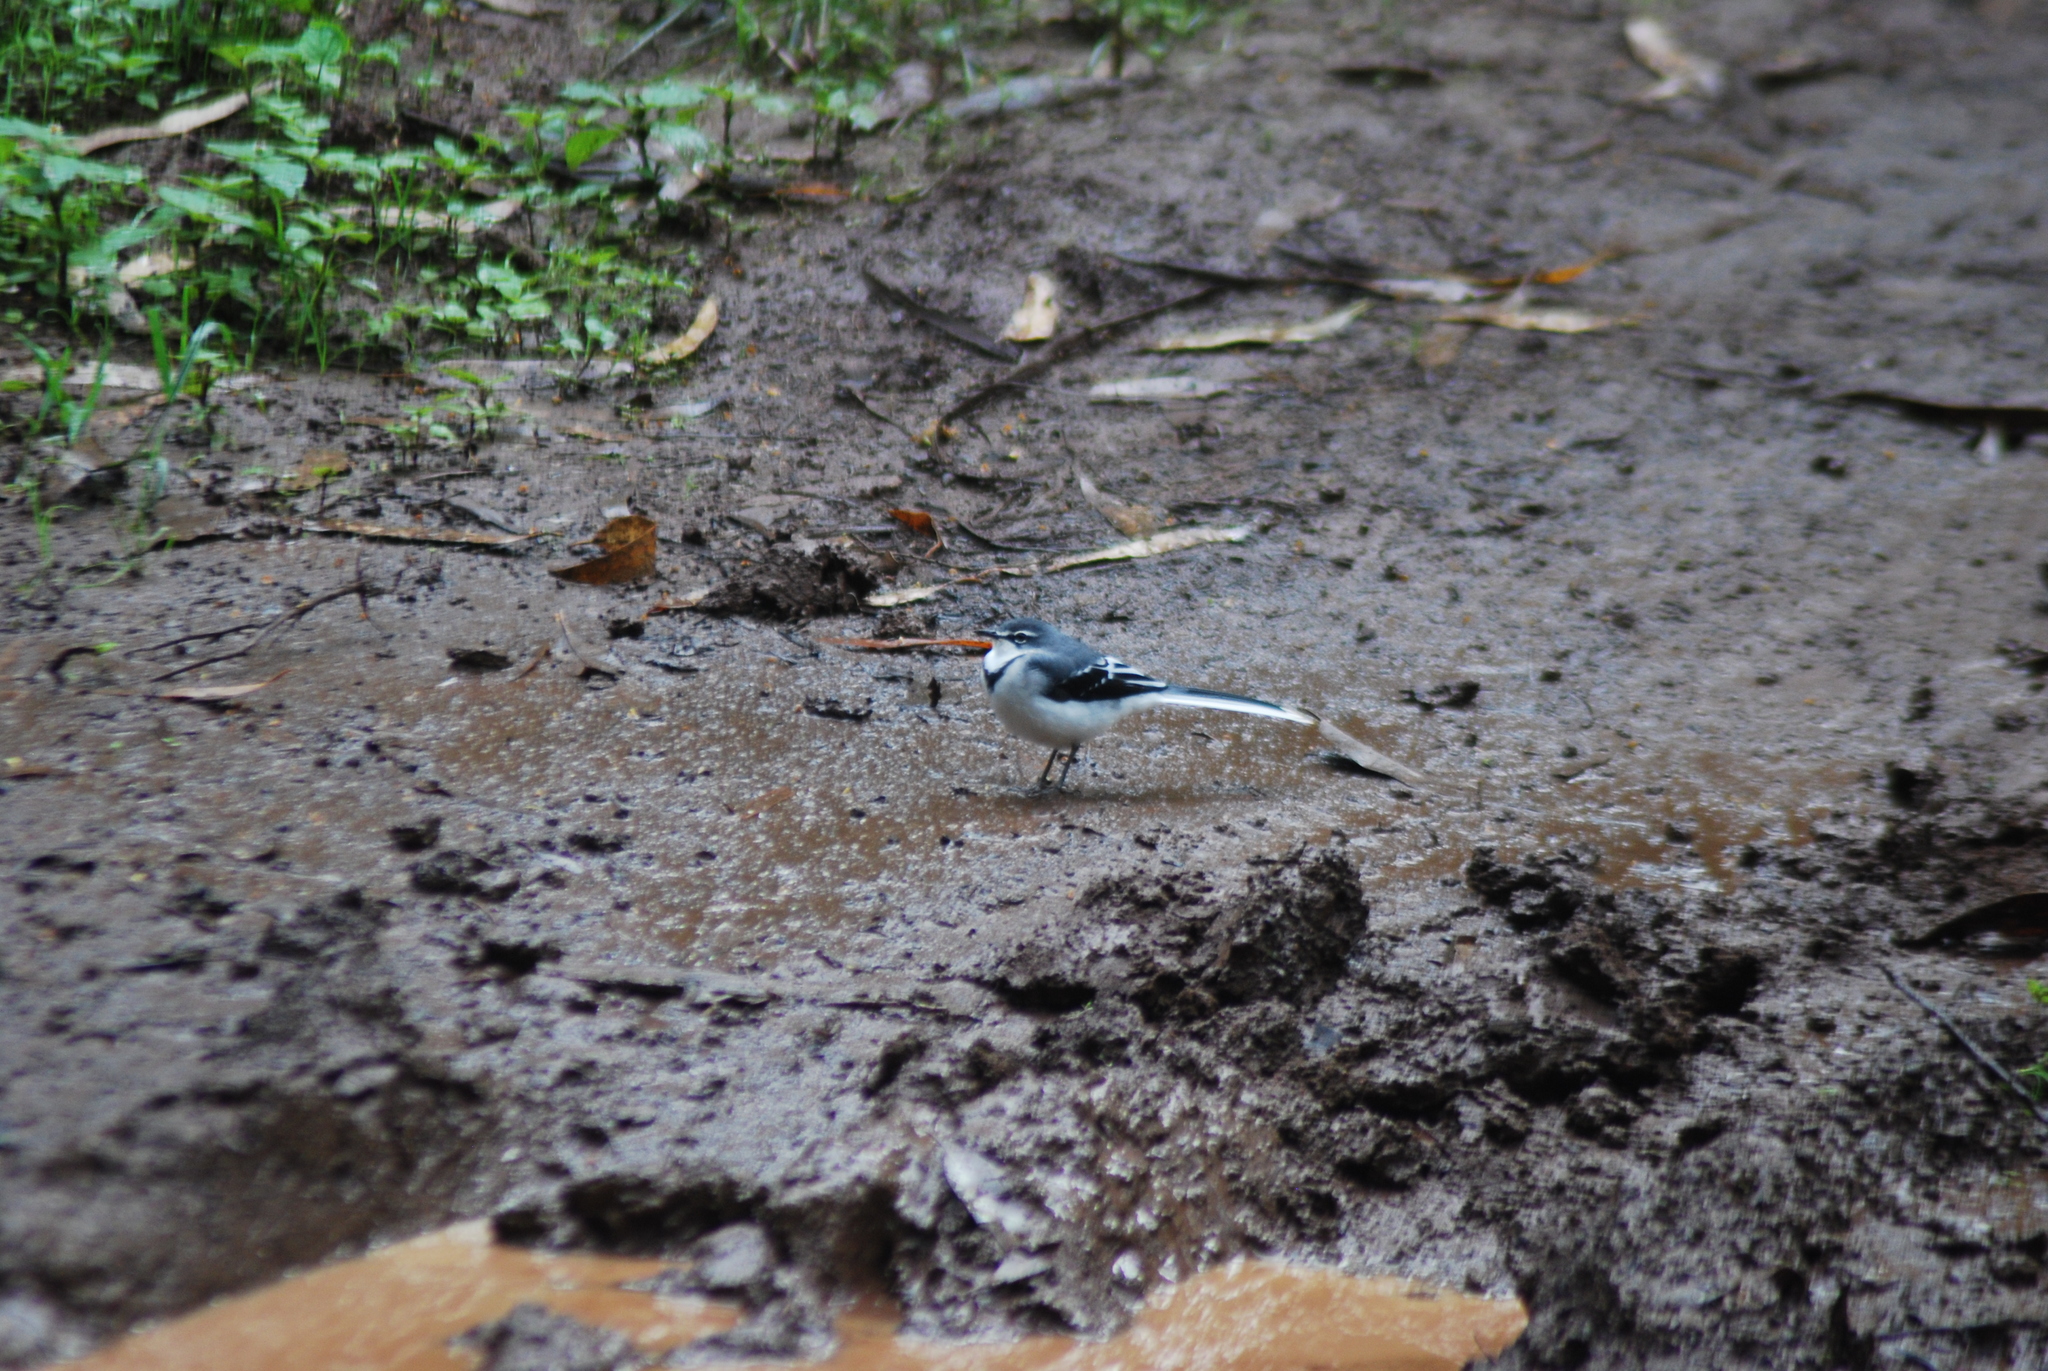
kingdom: Animalia
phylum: Chordata
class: Aves
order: Passeriformes
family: Motacillidae
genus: Motacilla
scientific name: Motacilla clara
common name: Mountain wagtail
